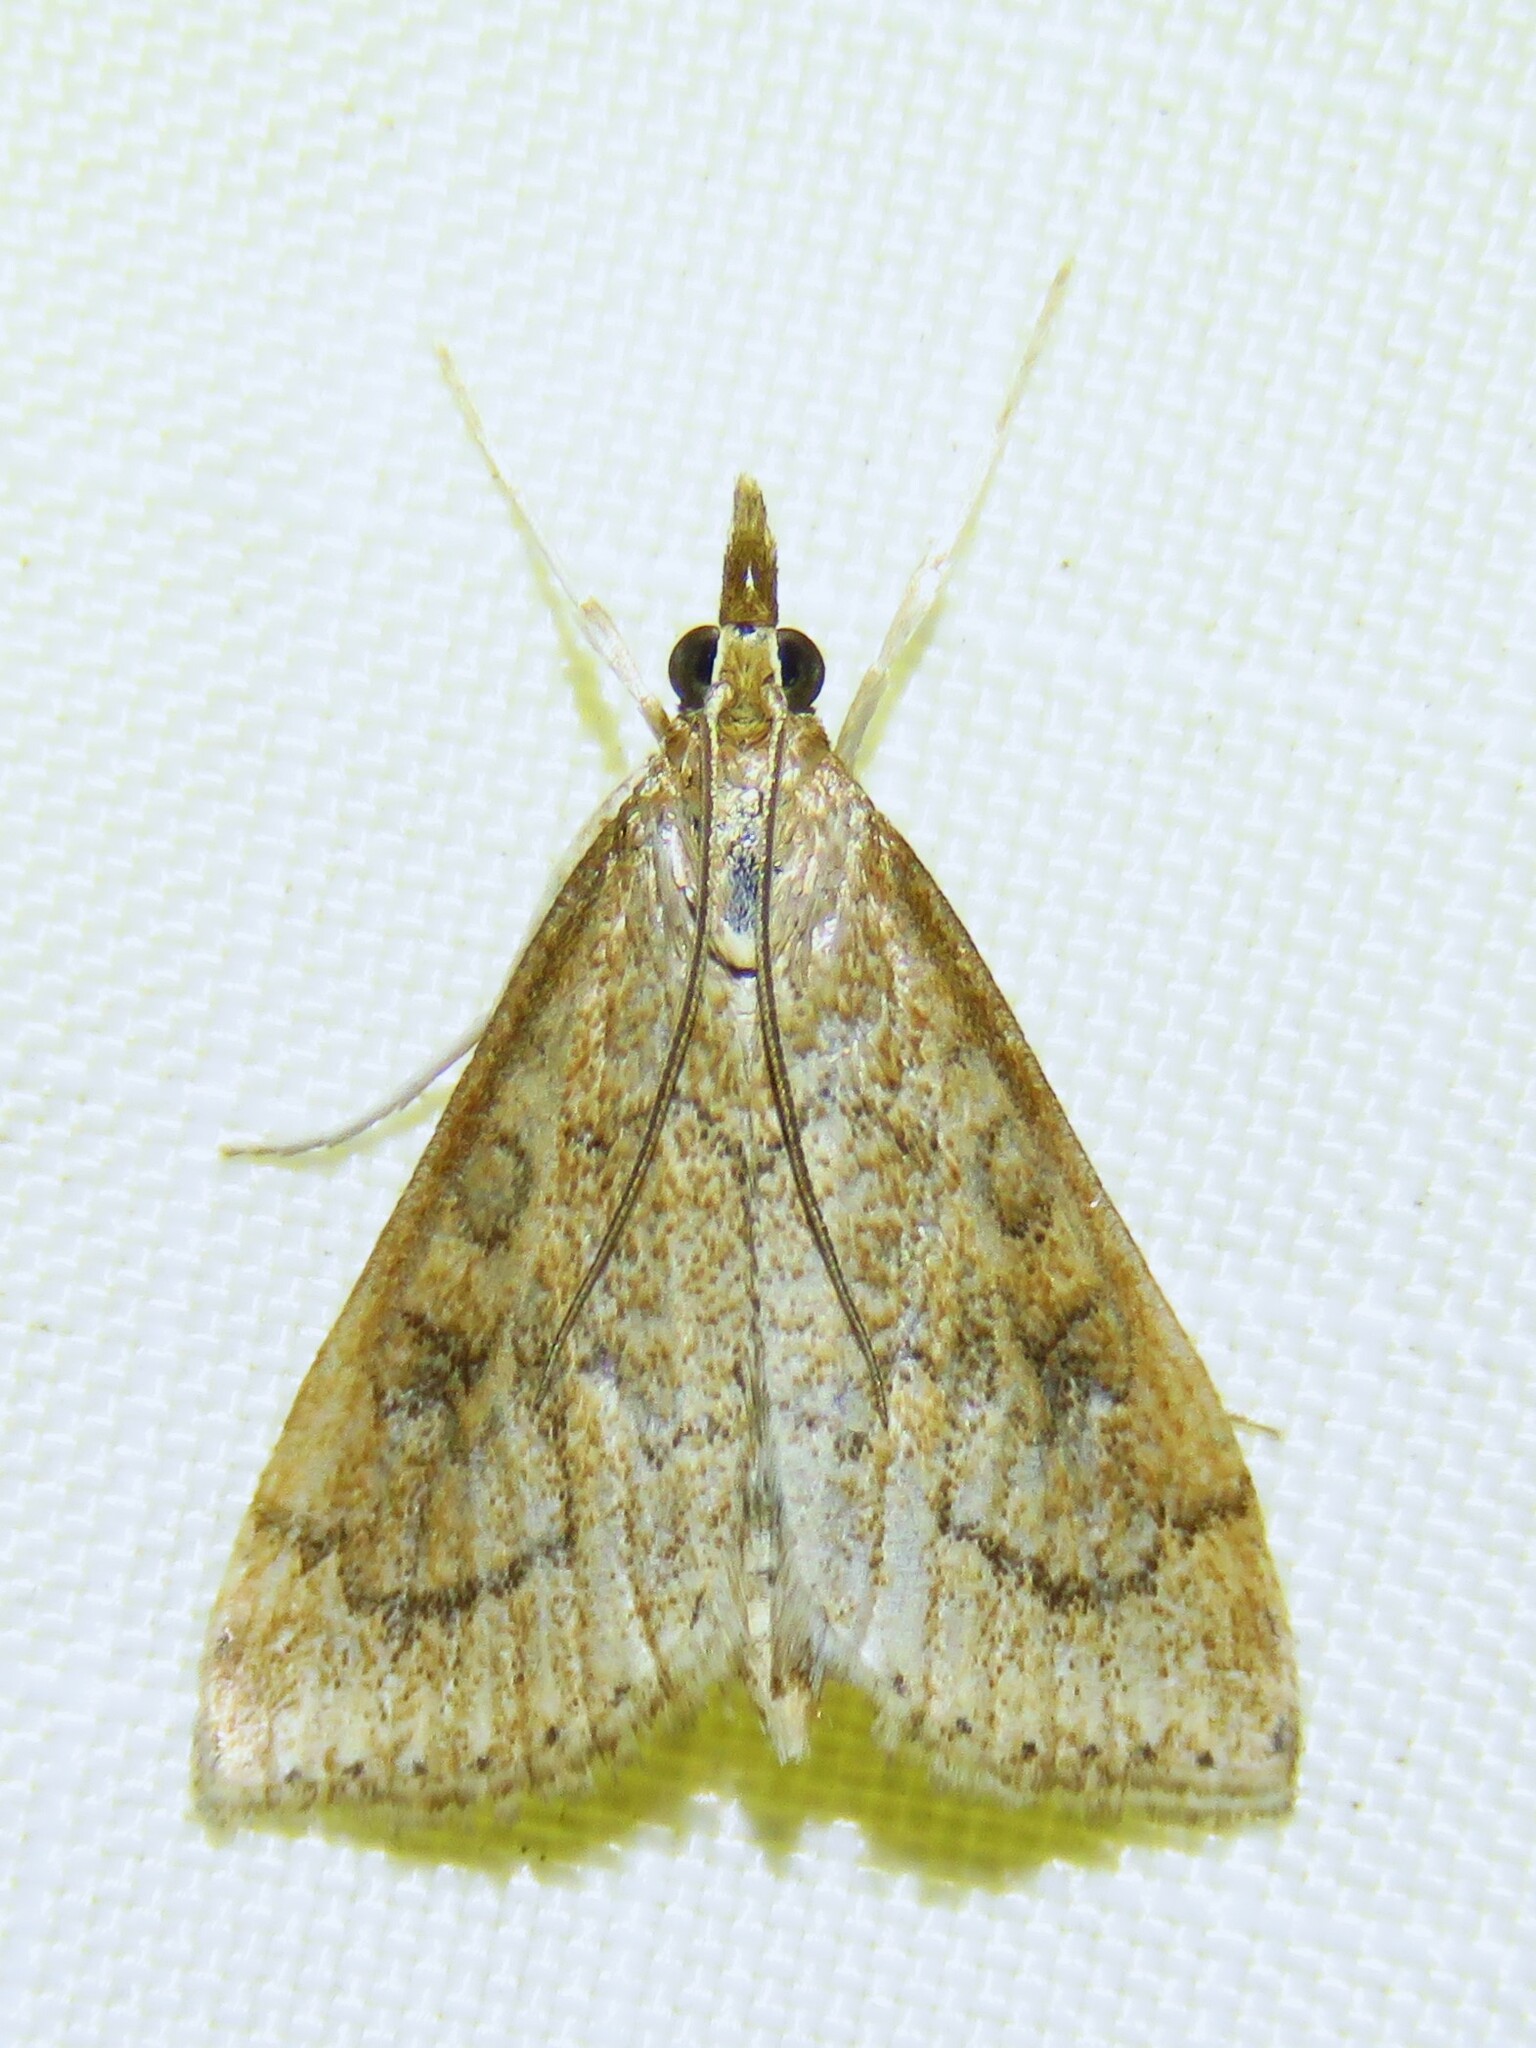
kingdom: Animalia
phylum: Arthropoda
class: Insecta
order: Lepidoptera
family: Crambidae
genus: Udea
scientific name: Udea rubigalis
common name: Celery leaftier moth
